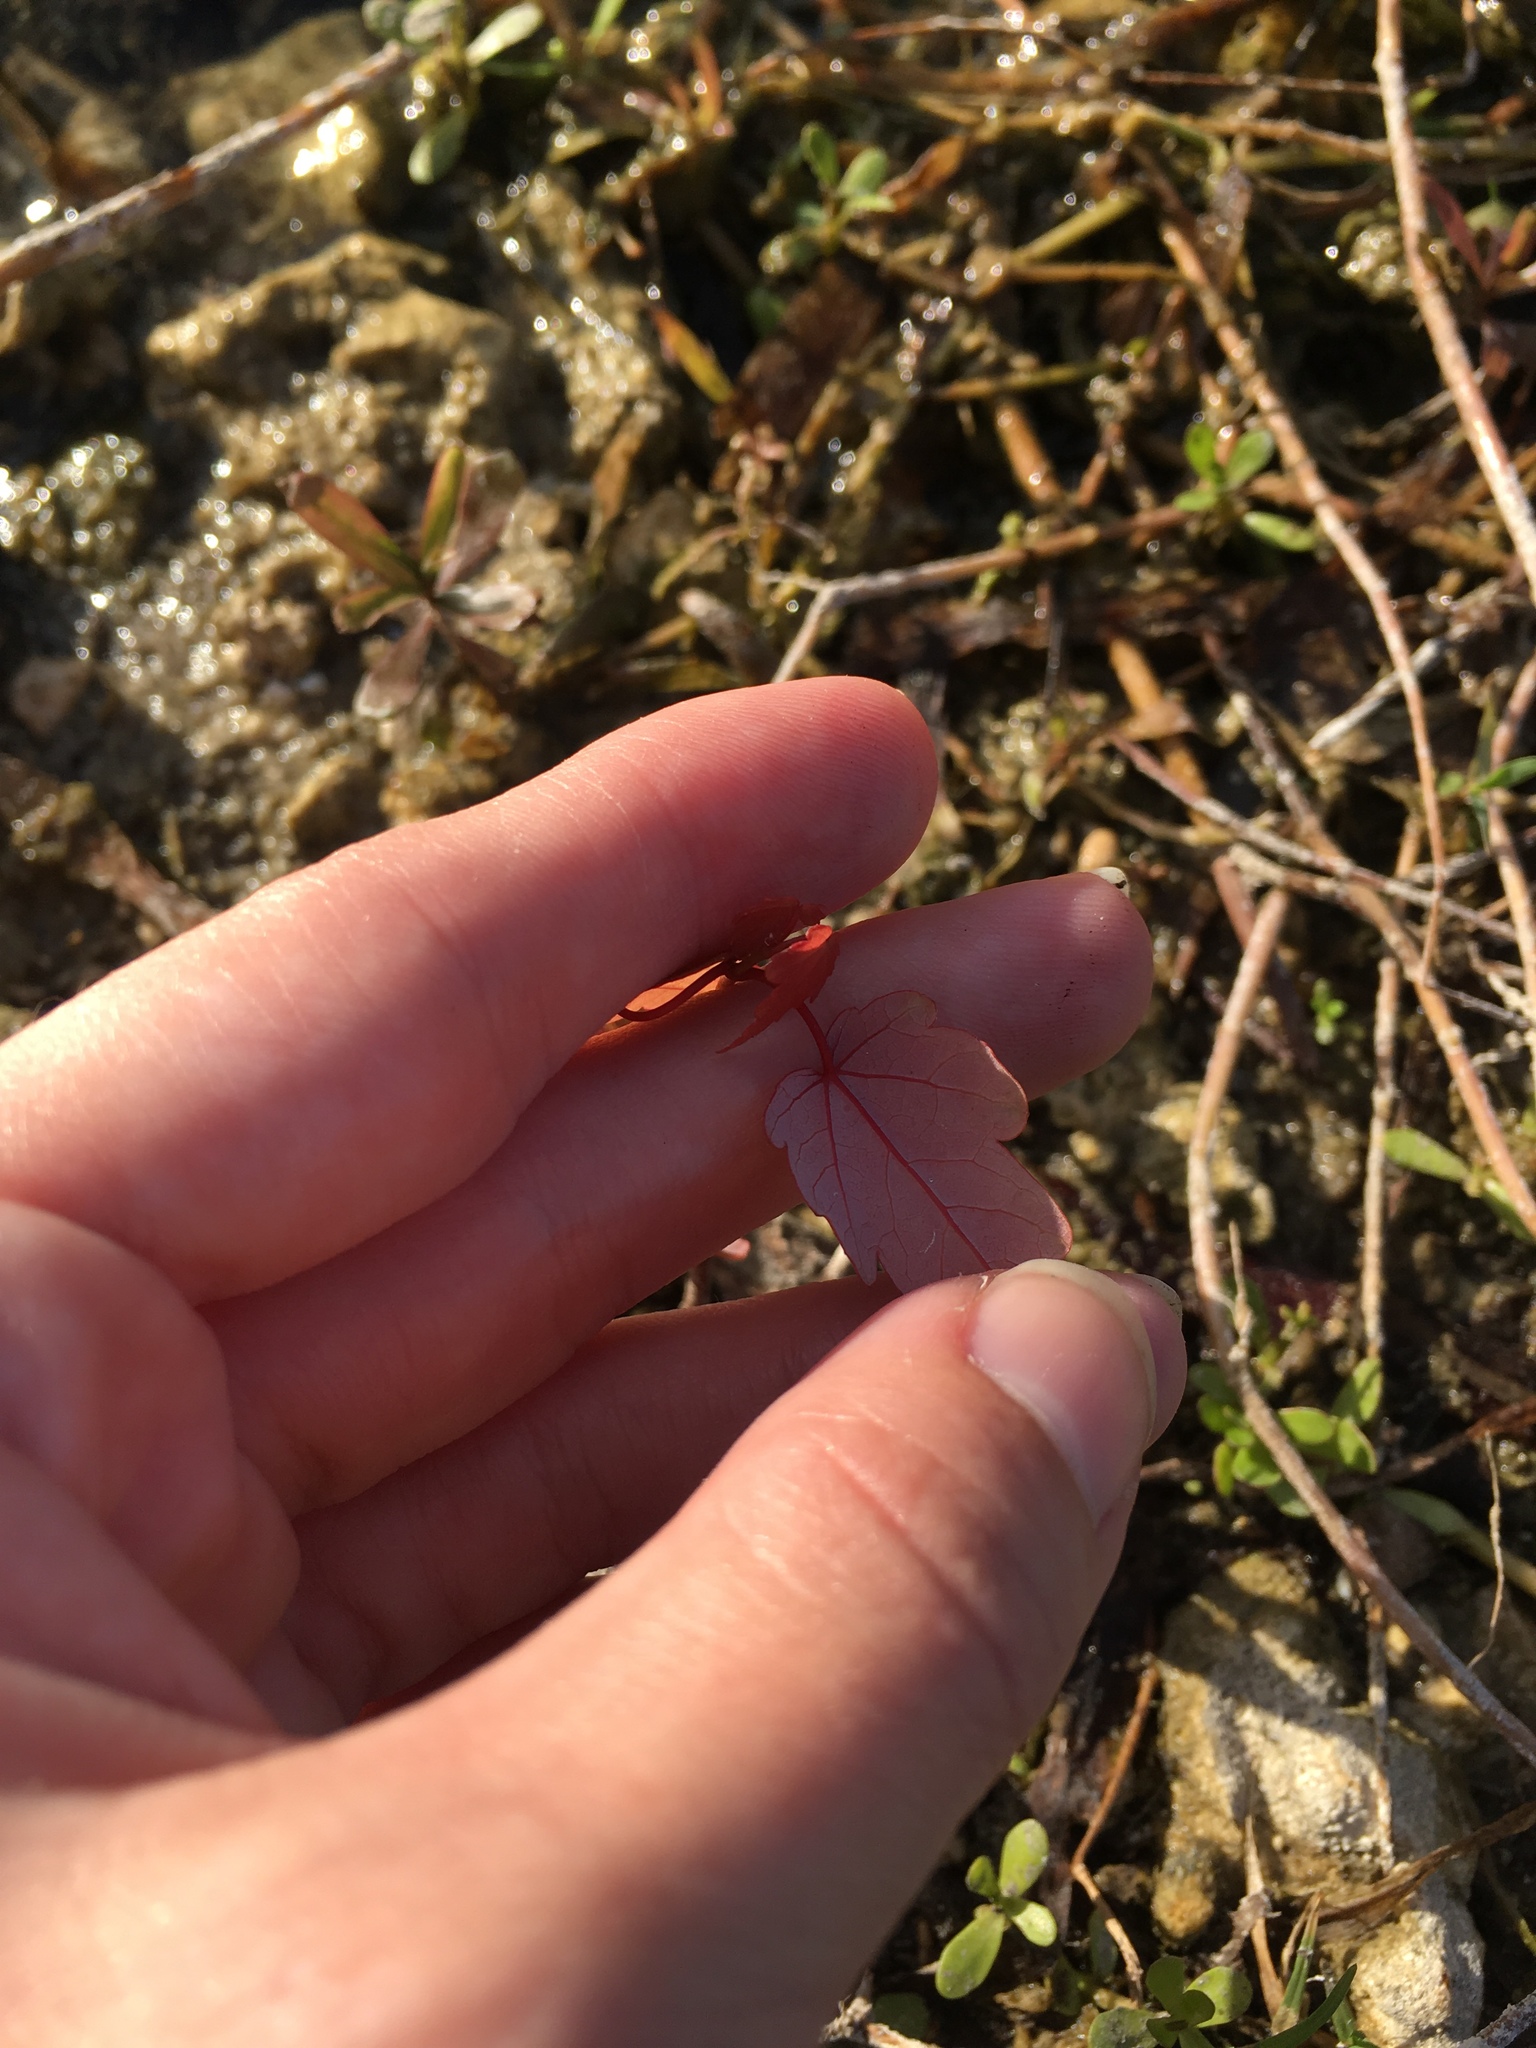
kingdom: Plantae
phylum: Tracheophyta
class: Magnoliopsida
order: Sapindales
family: Sapindaceae
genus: Acer
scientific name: Acer rubrum
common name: Red maple
